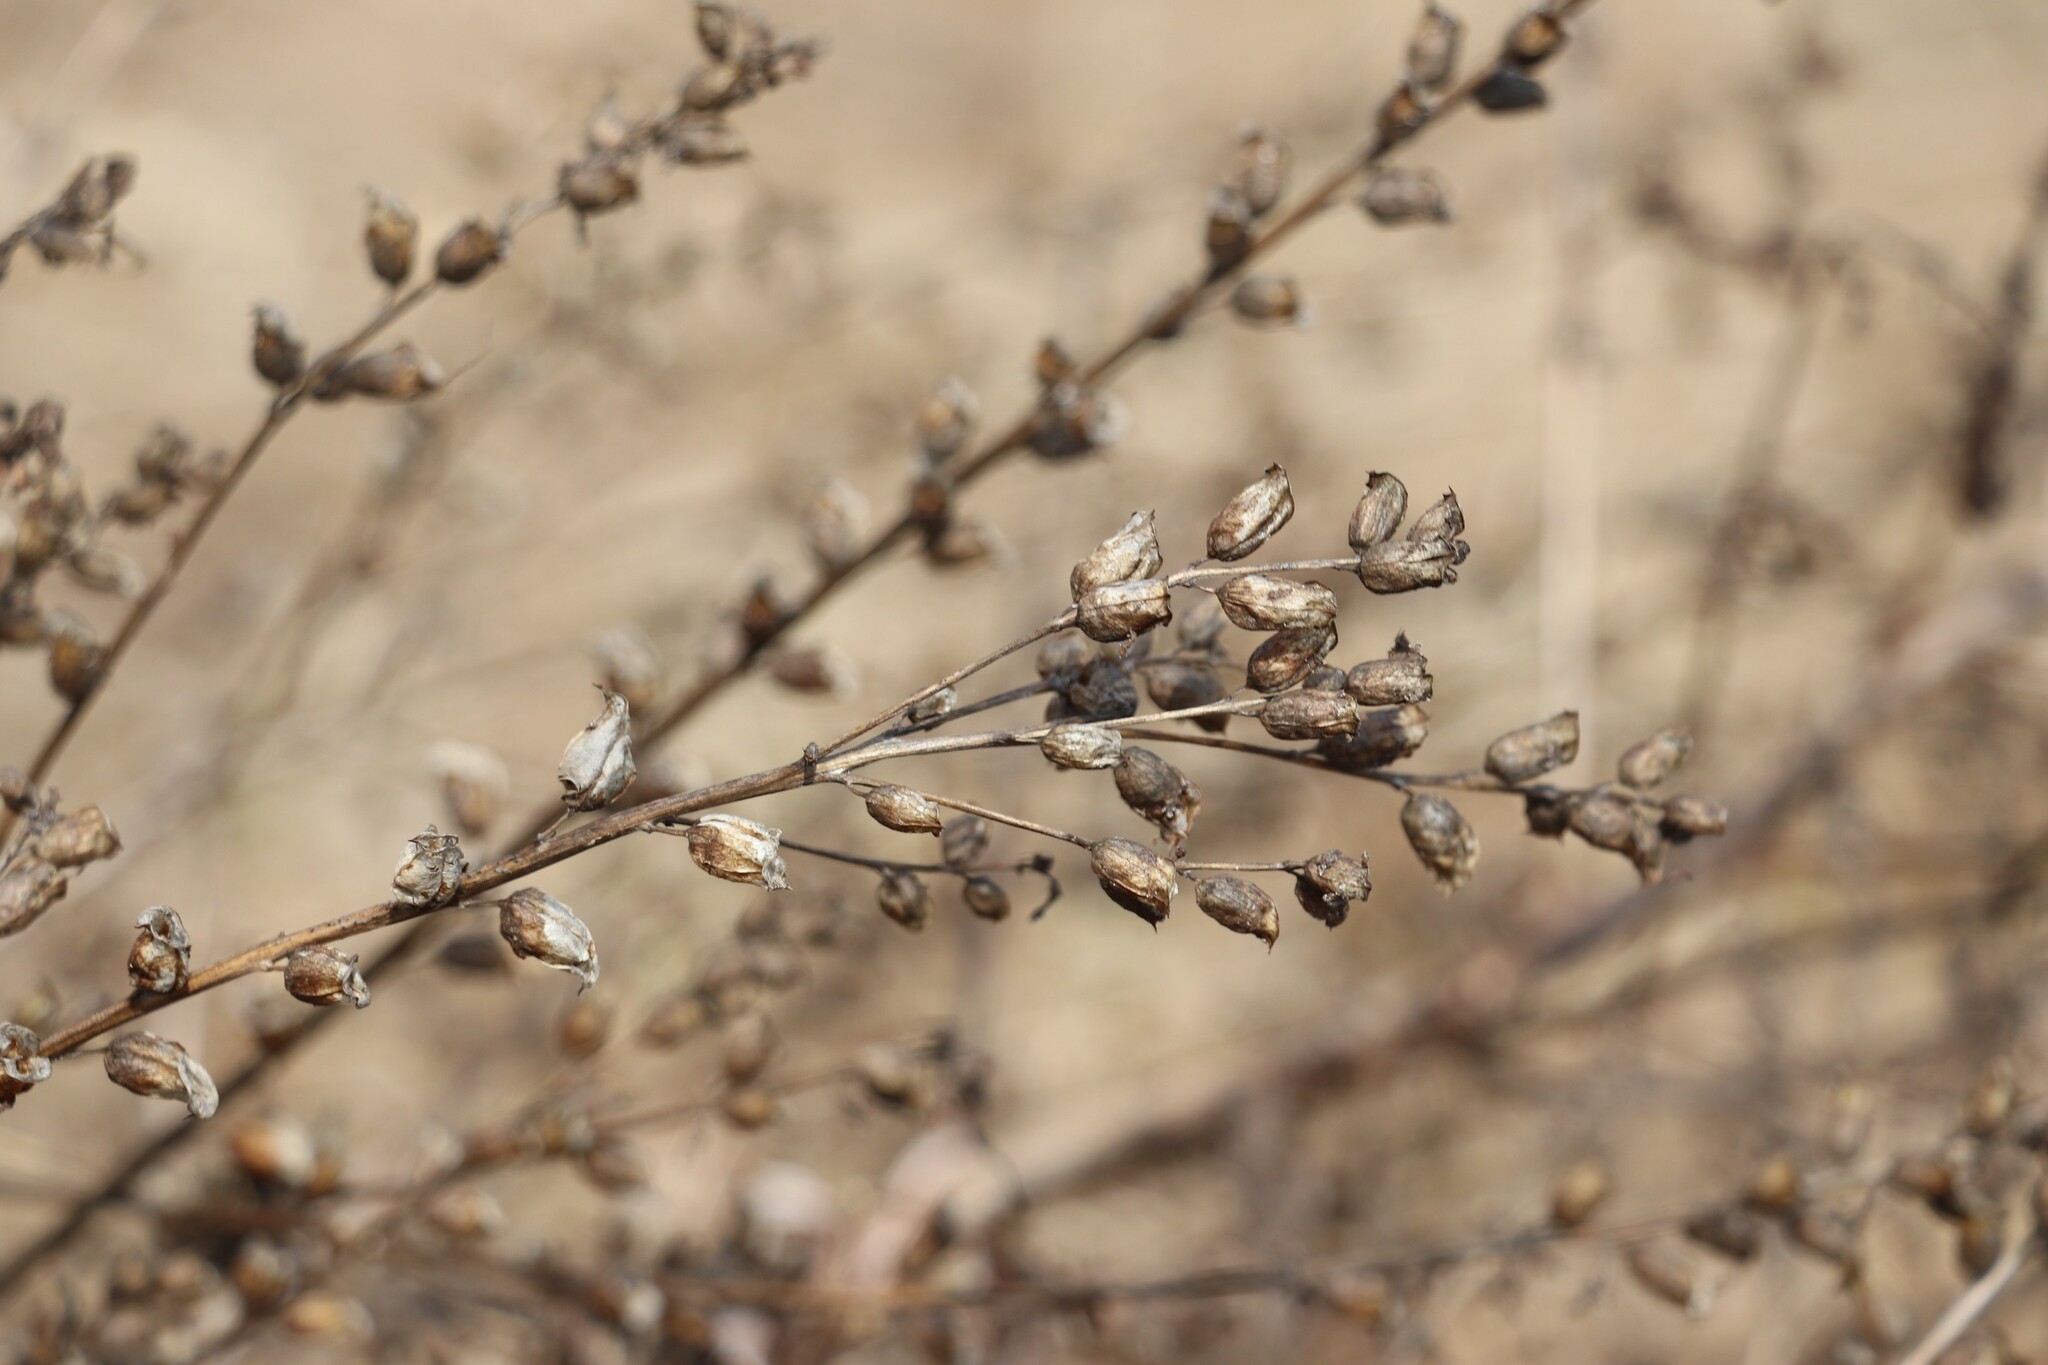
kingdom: Plantae
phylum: Tracheophyta
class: Magnoliopsida
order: Myrtales
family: Lythraceae
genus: Lythrum
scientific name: Lythrum salicaria
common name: Purple loosestrife
